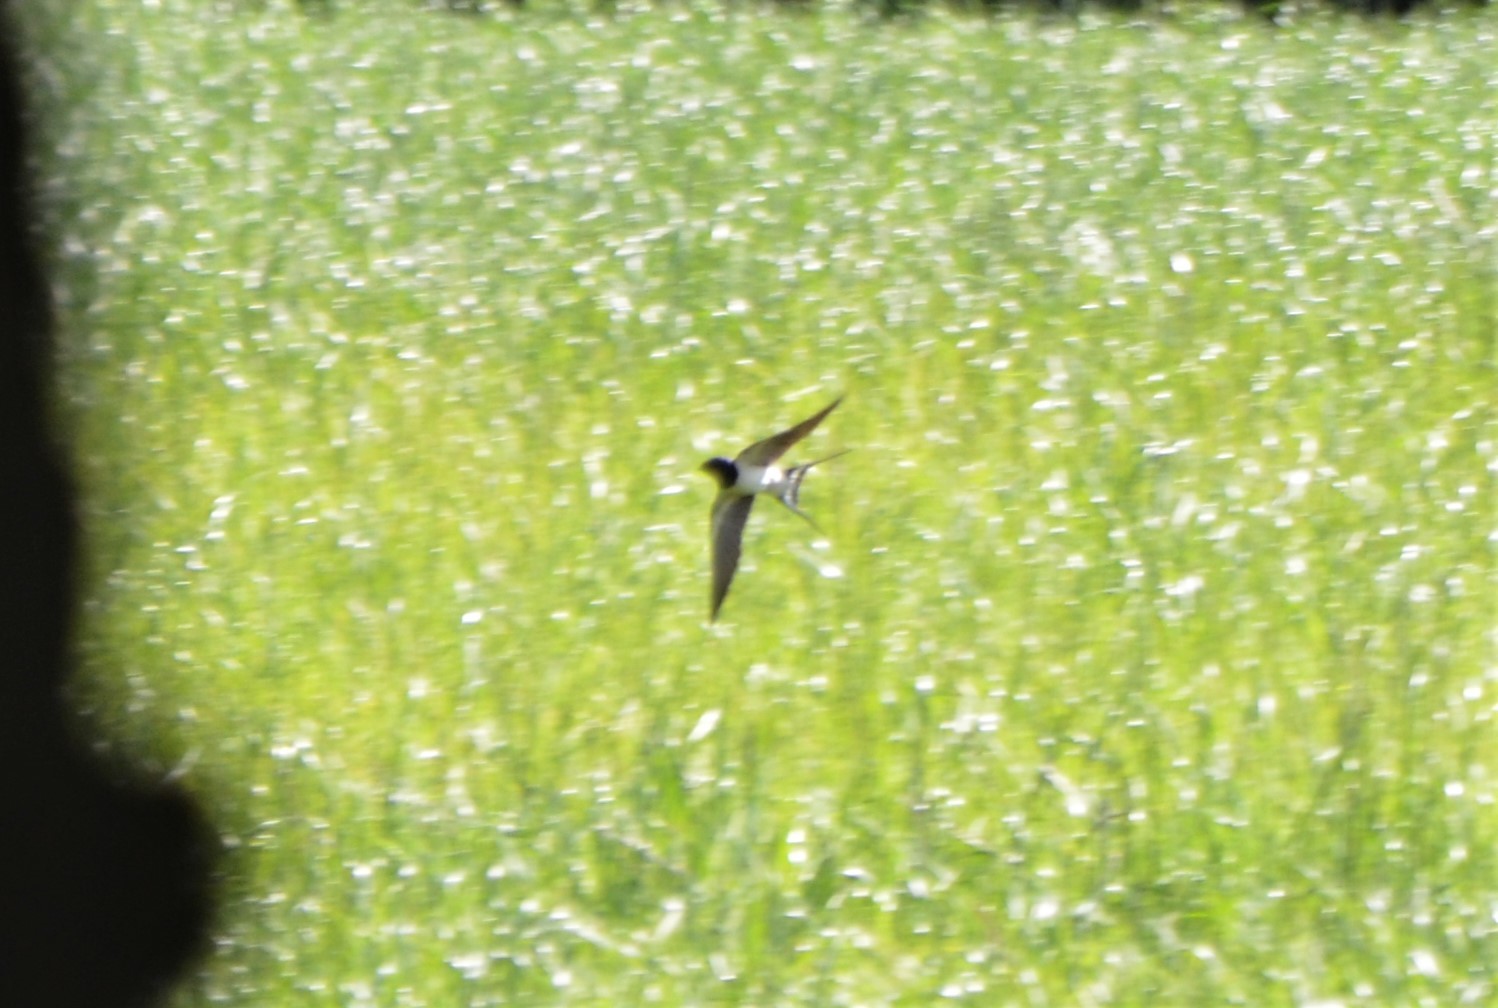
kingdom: Animalia
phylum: Chordata
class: Aves
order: Passeriformes
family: Hirundinidae
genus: Hirundo
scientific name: Hirundo rustica
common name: Barn swallow
